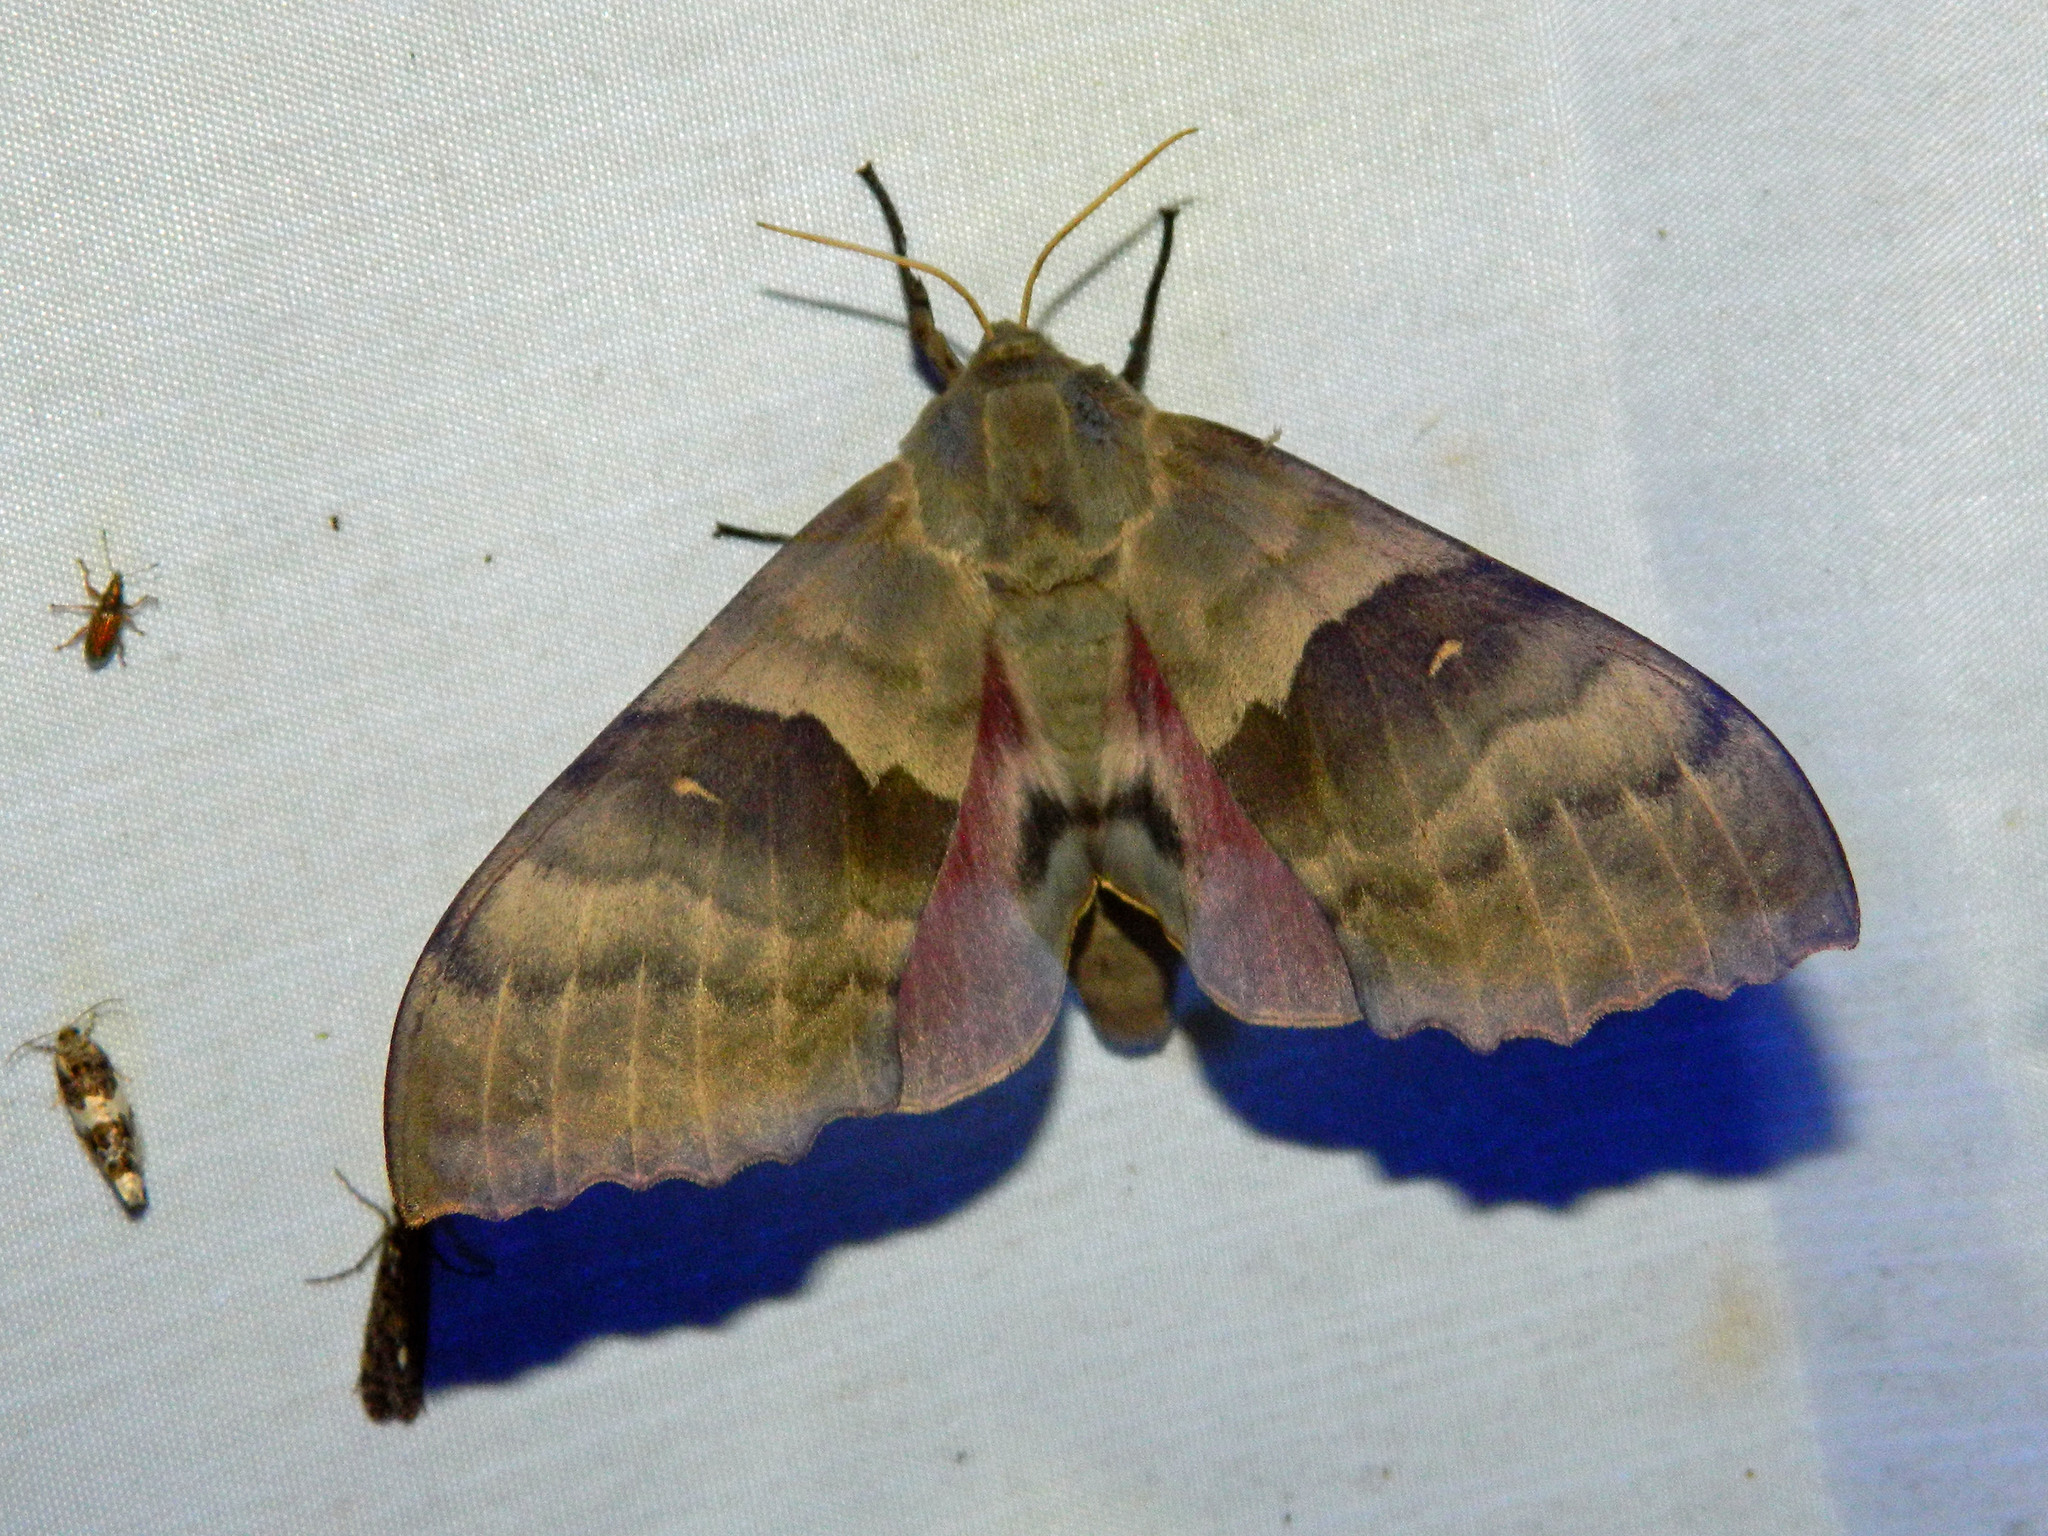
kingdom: Animalia
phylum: Arthropoda
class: Insecta
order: Lepidoptera
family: Sphingidae
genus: Pachysphinx
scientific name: Pachysphinx modesta
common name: Big poplar sphinx
